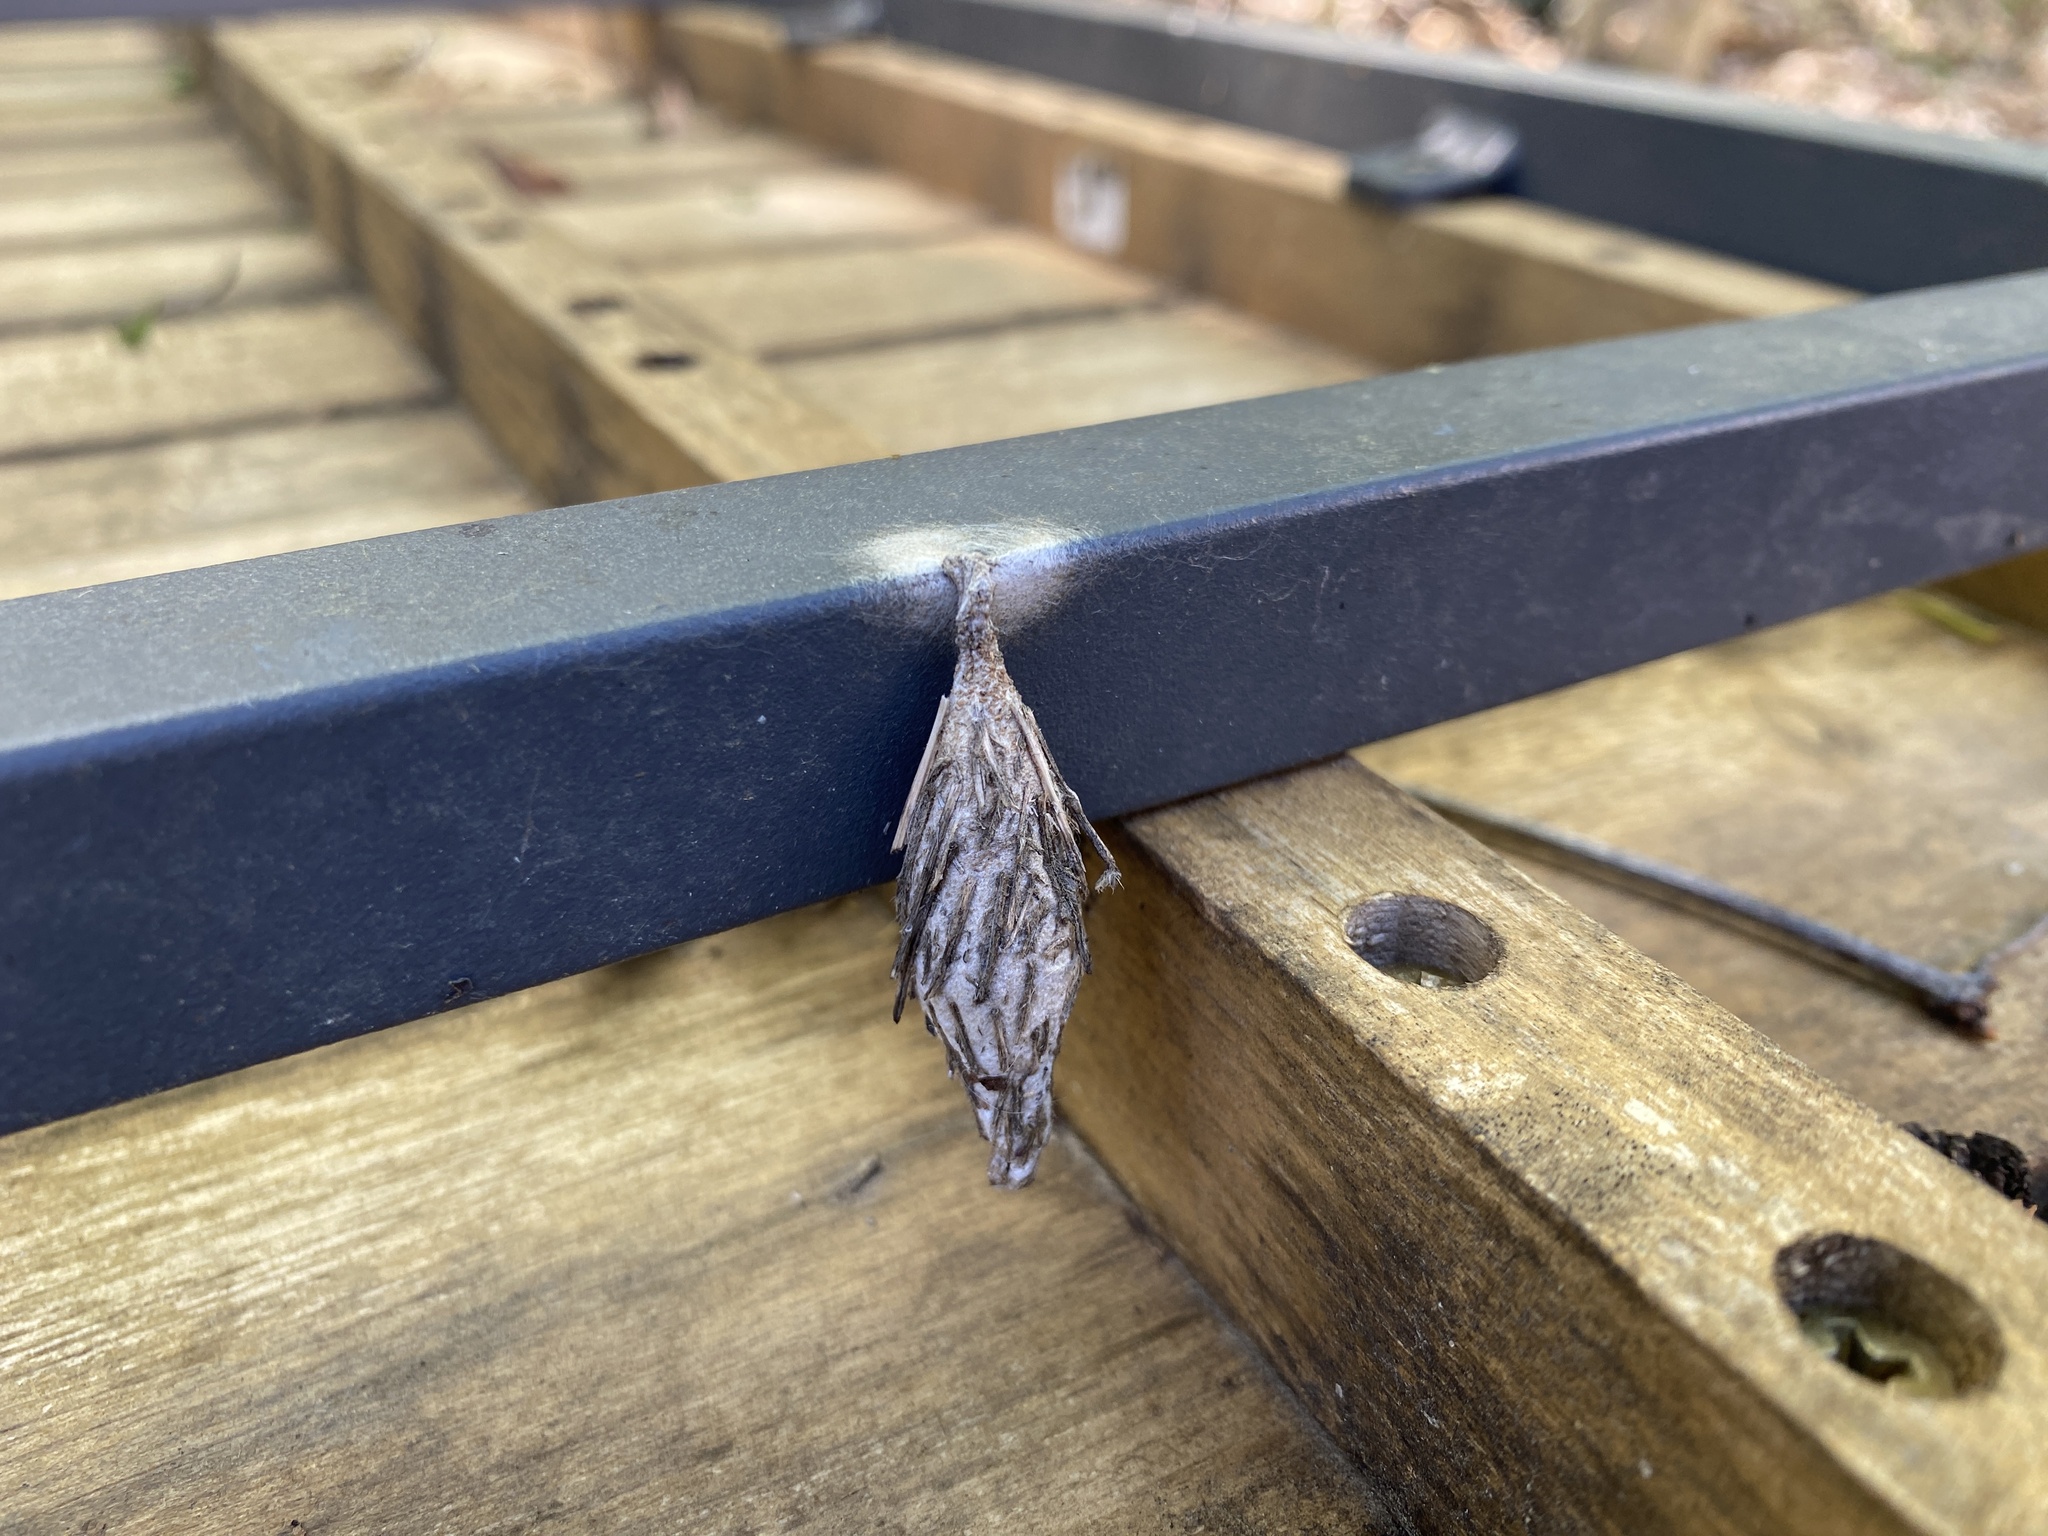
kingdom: Animalia
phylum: Arthropoda
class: Insecta
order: Lepidoptera
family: Psychidae
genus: Thyridopteryx
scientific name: Thyridopteryx ephemeraeformis
